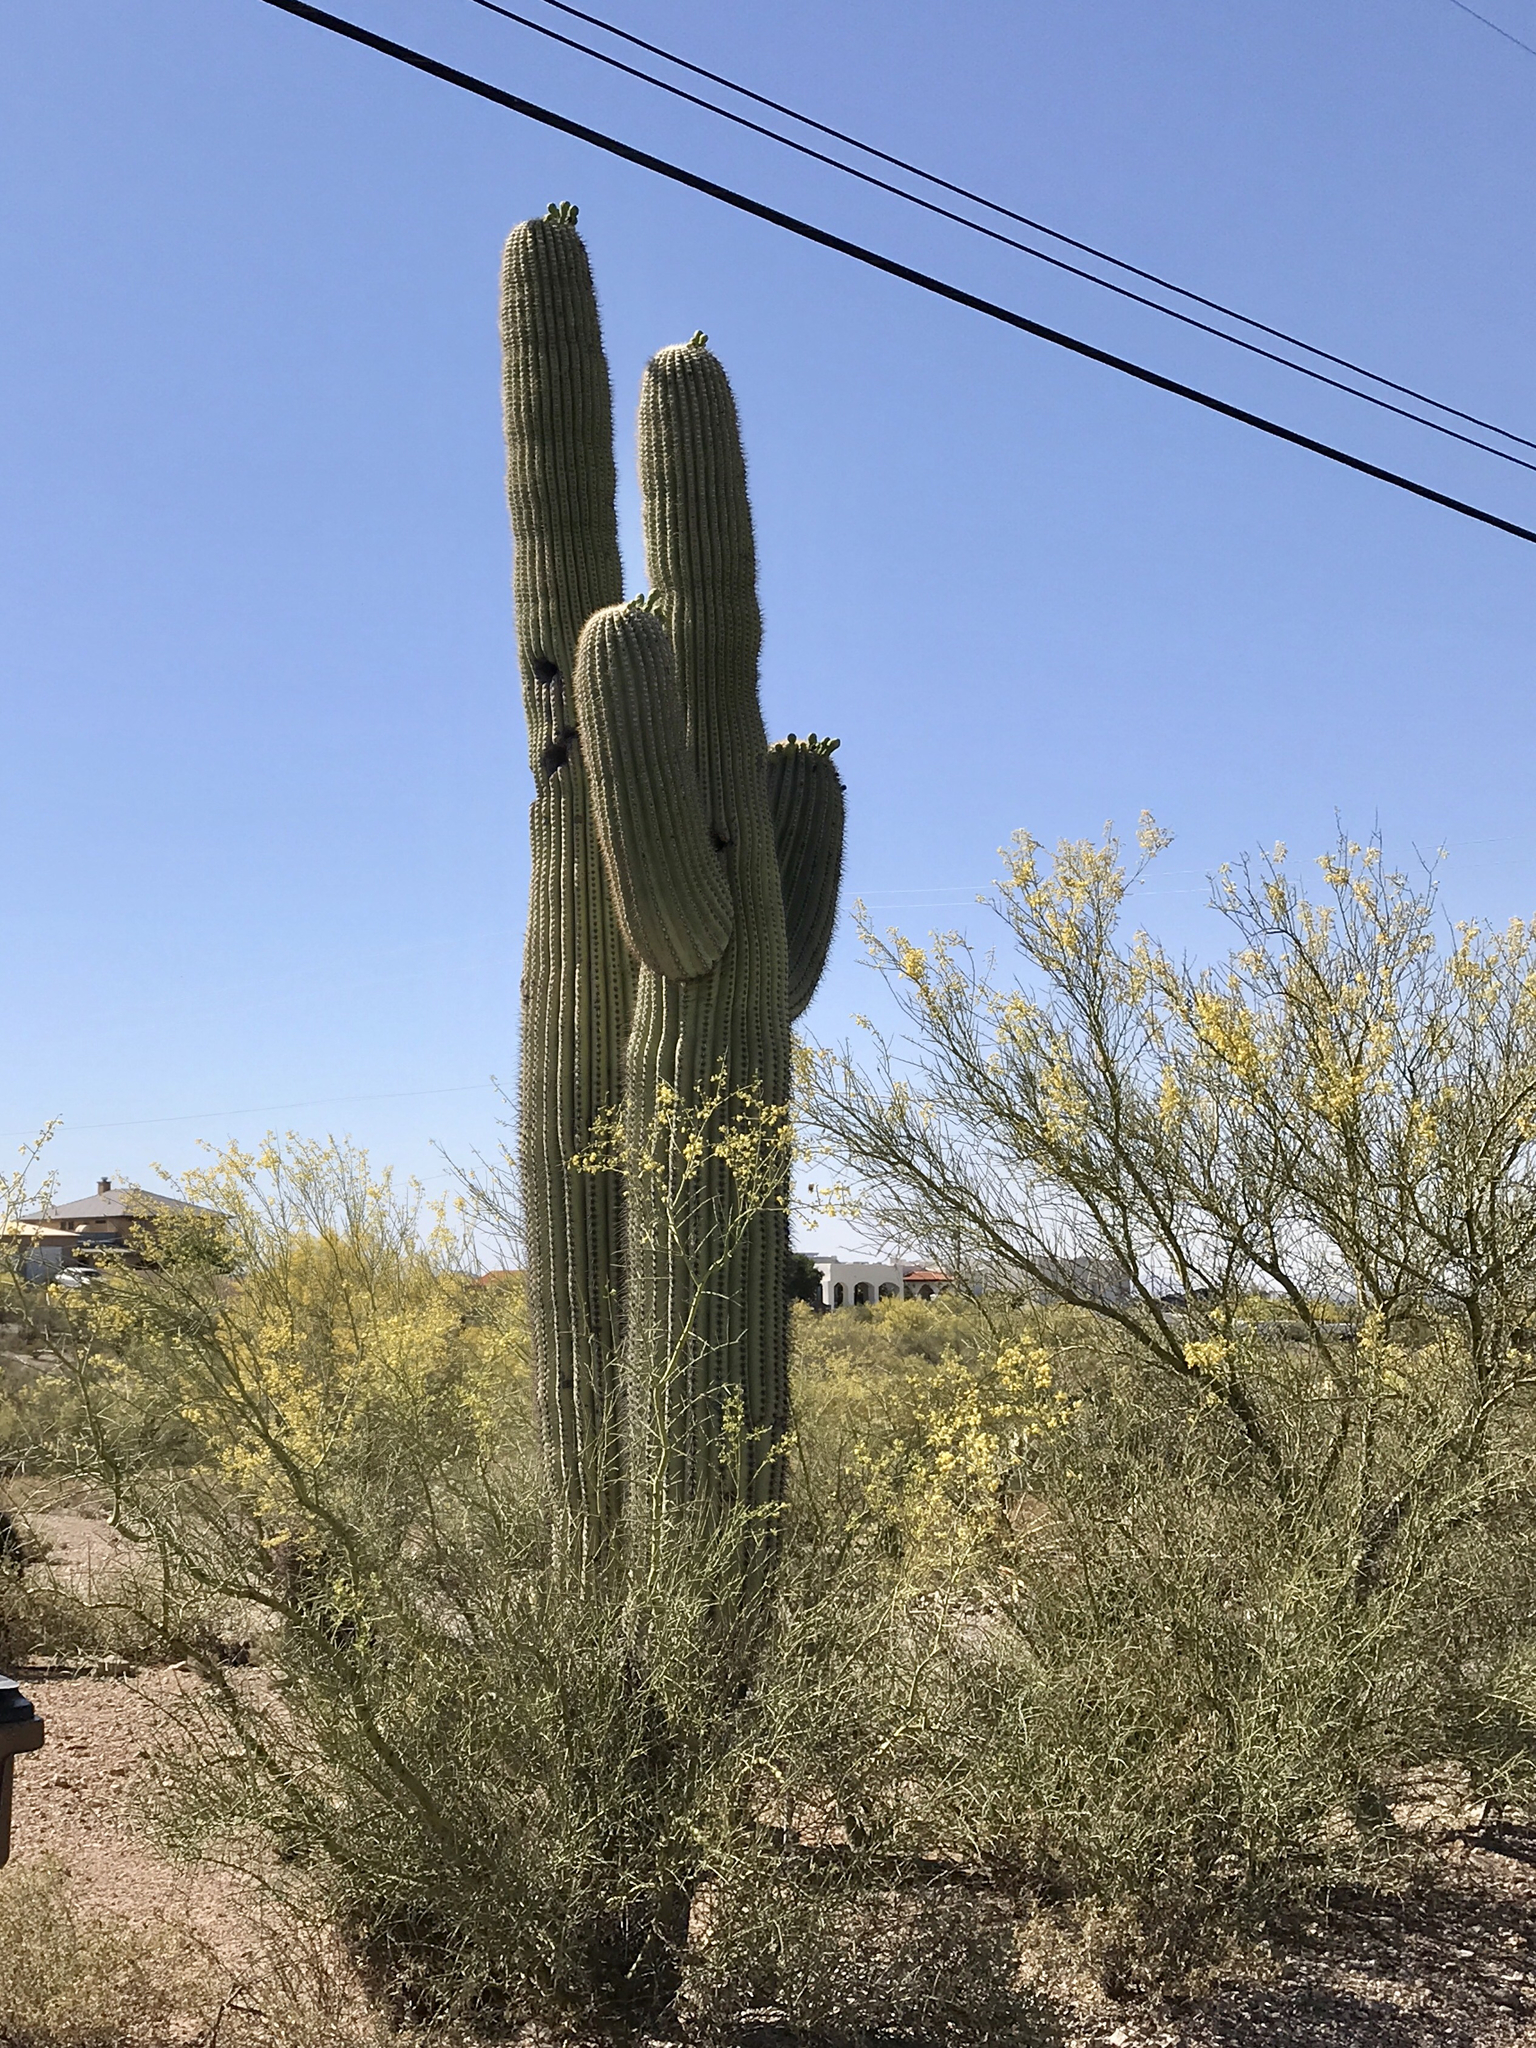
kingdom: Plantae
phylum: Tracheophyta
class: Magnoliopsida
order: Fabales
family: Fabaceae
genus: Parkinsonia
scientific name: Parkinsonia florida
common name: Blue paloverde
